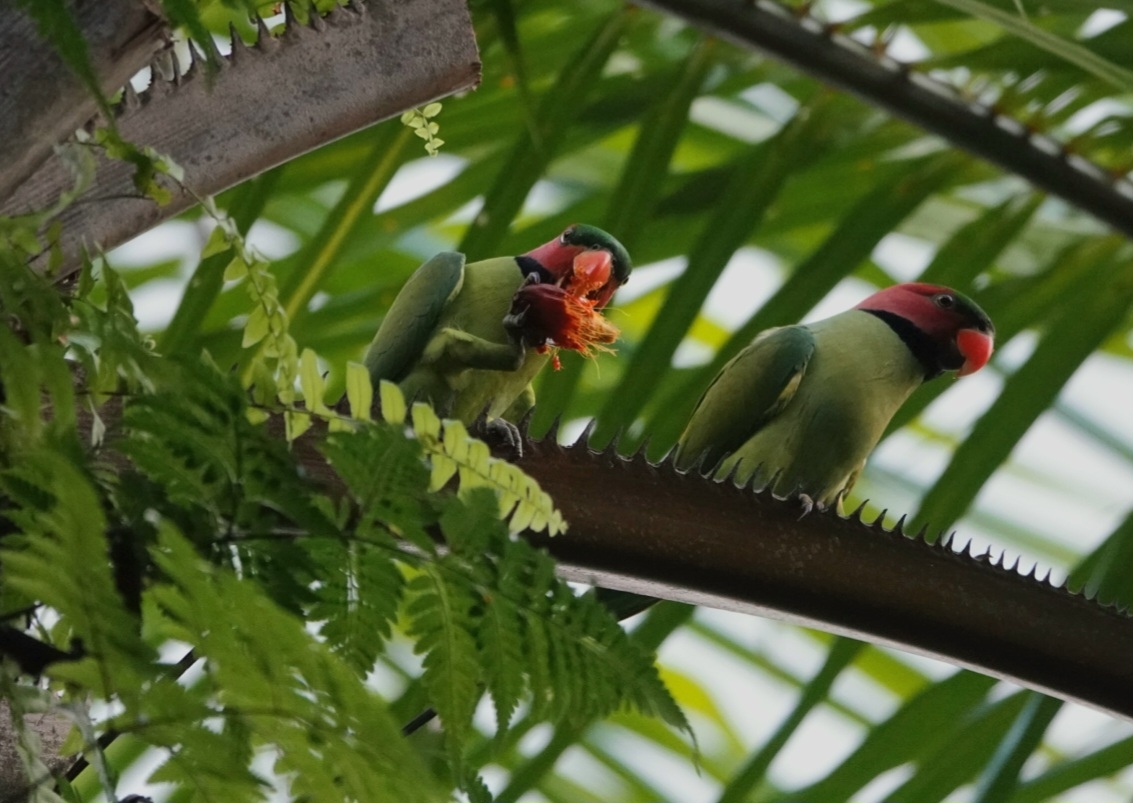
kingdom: Animalia
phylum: Chordata
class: Aves
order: Psittaciformes
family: Psittacidae
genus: Psittacula
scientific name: Psittacula longicauda
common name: Long-tailed parakeet
